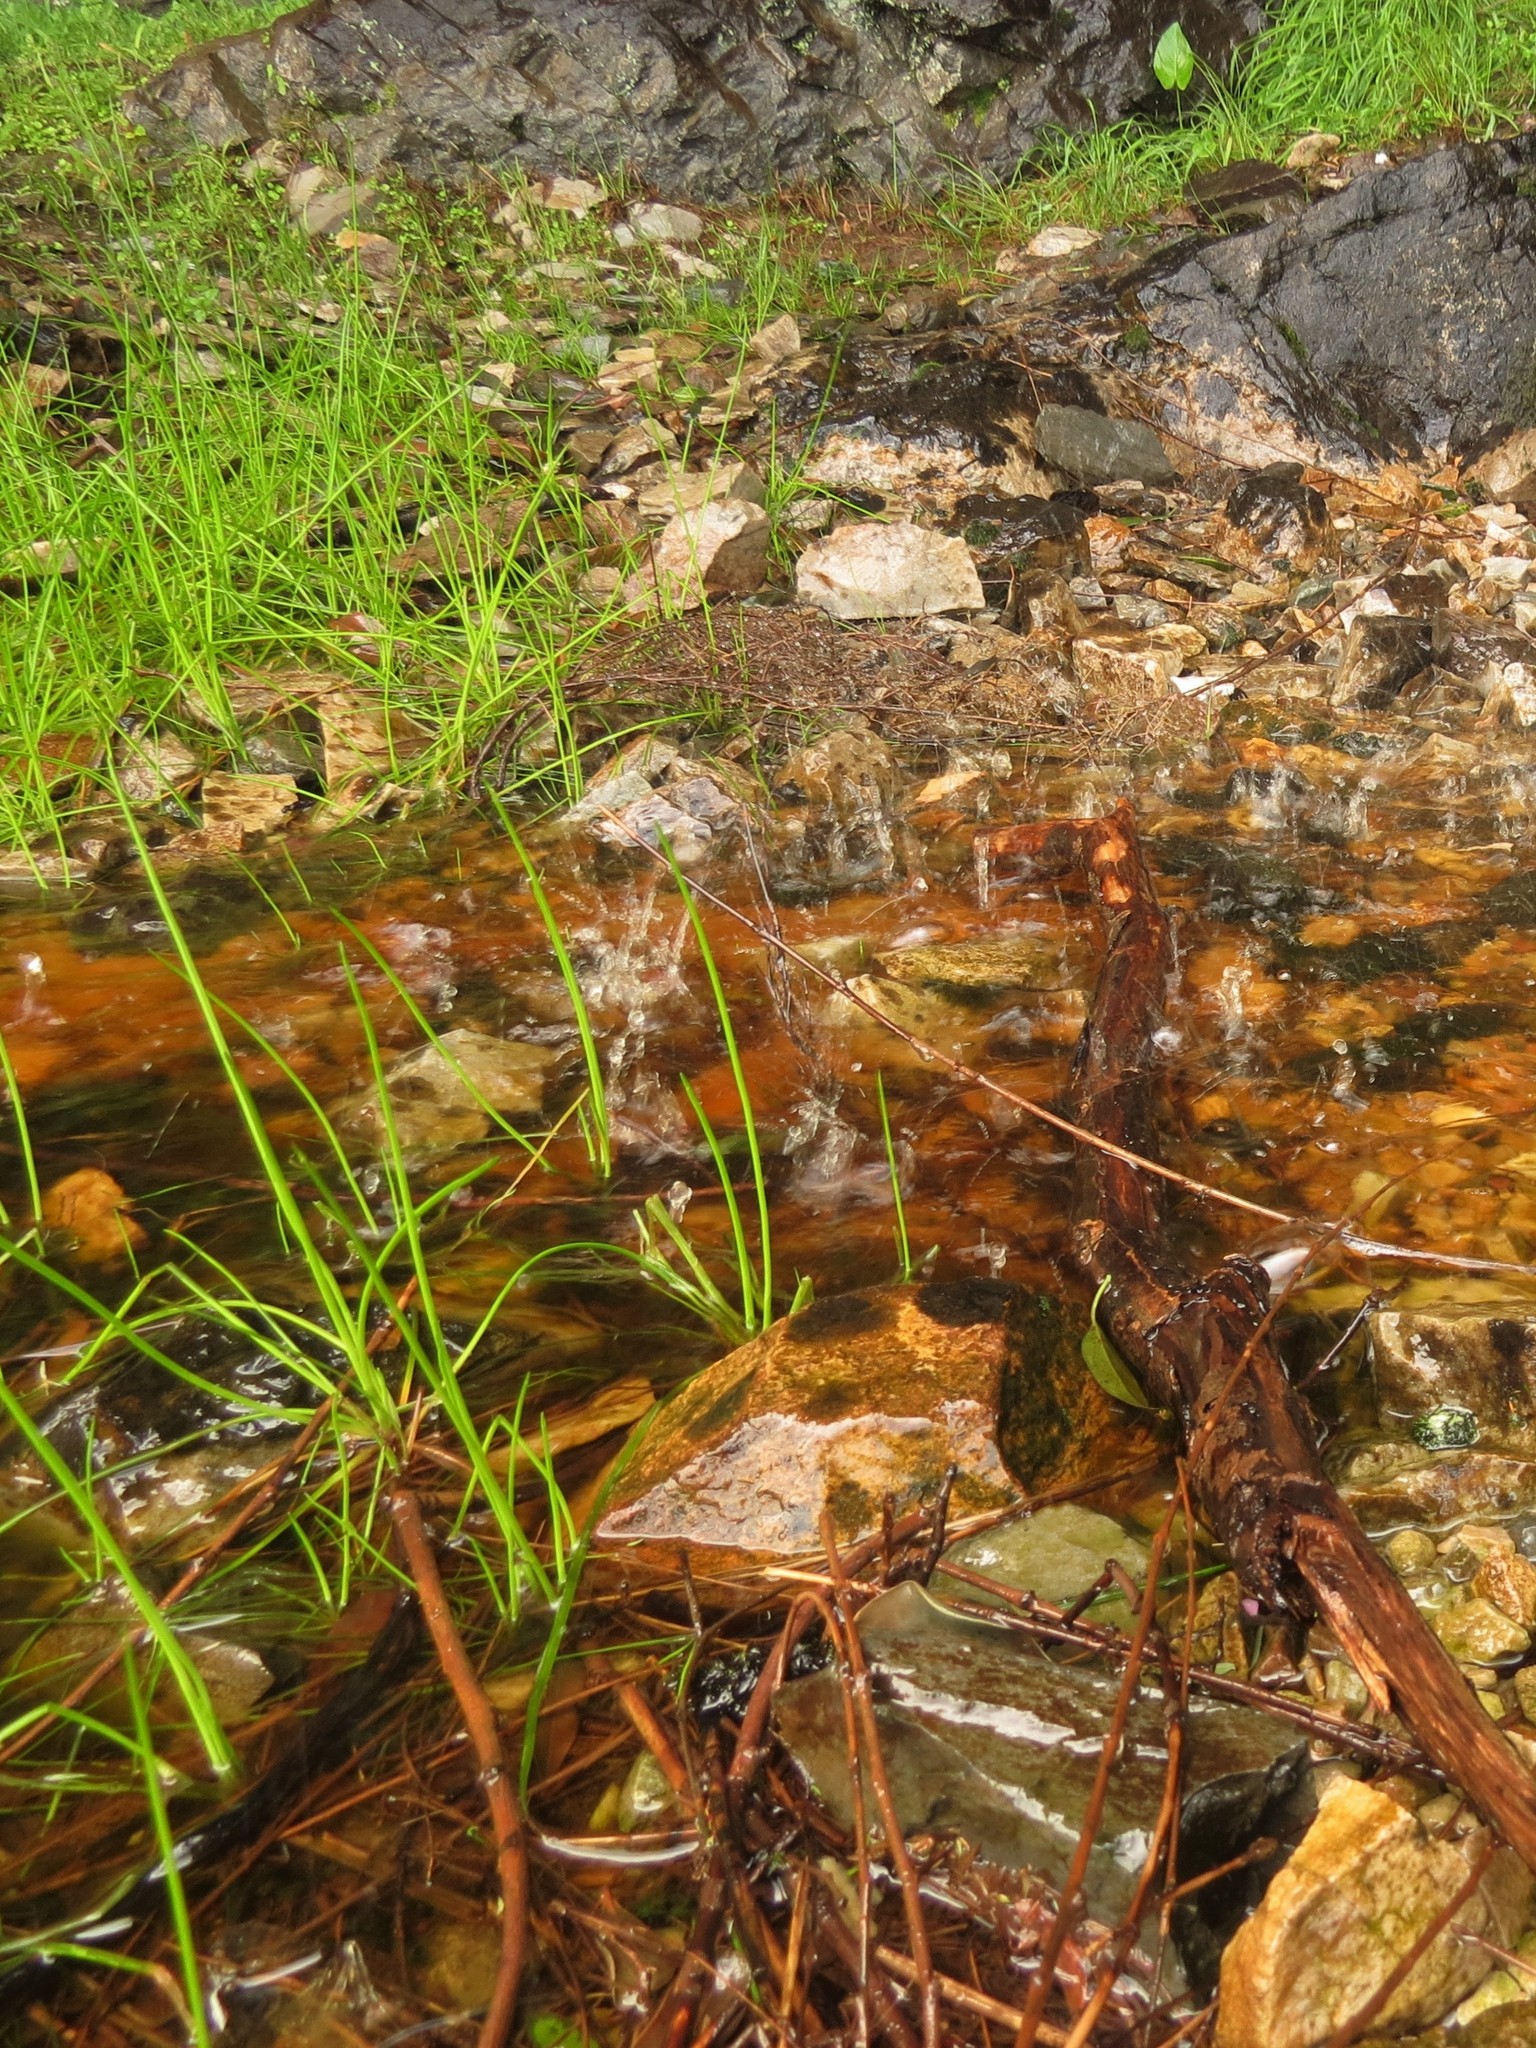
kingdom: Plantae
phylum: Tracheophyta
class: Liliopsida
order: Poales
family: Cyperaceae
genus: Isolepis
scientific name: Isolepis prolifera
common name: Proliferating bulrush
